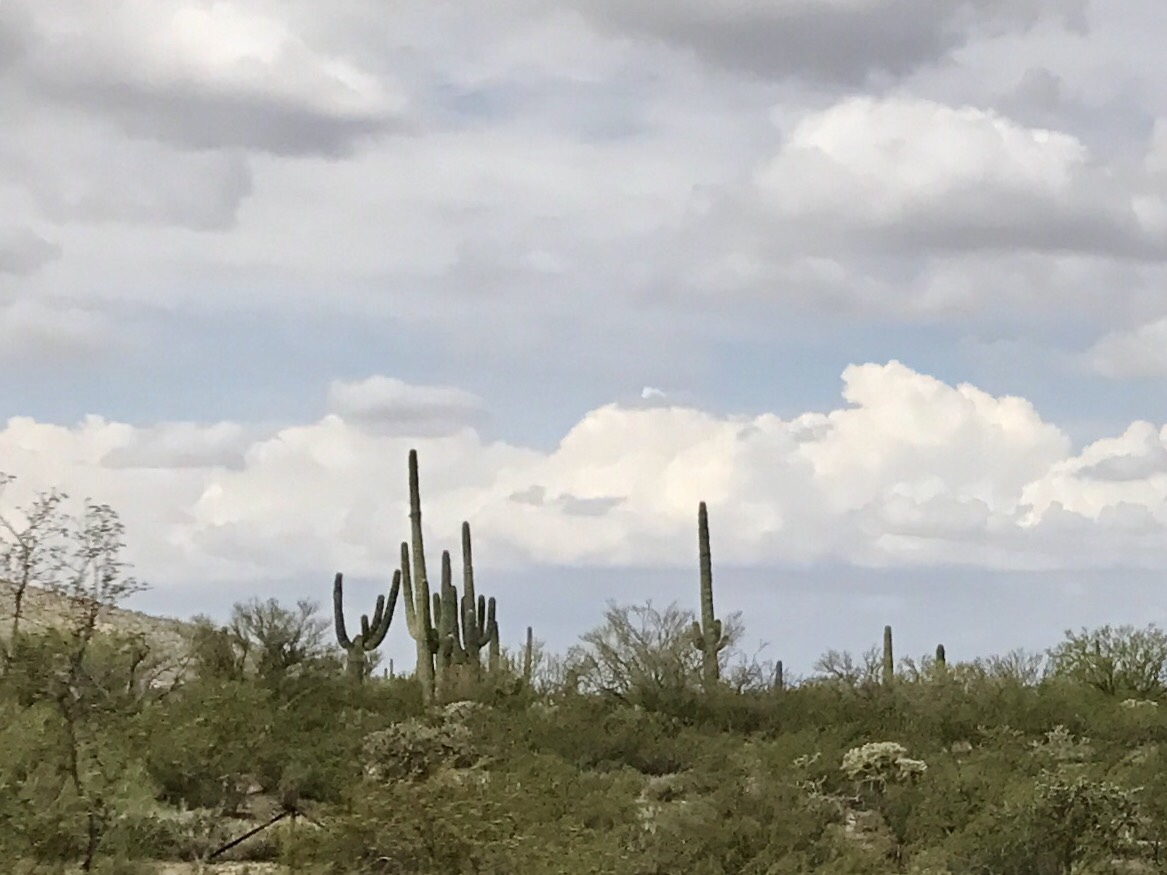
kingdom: Plantae
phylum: Tracheophyta
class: Magnoliopsida
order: Caryophyllales
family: Cactaceae
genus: Carnegiea
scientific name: Carnegiea gigantea
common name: Saguaro
